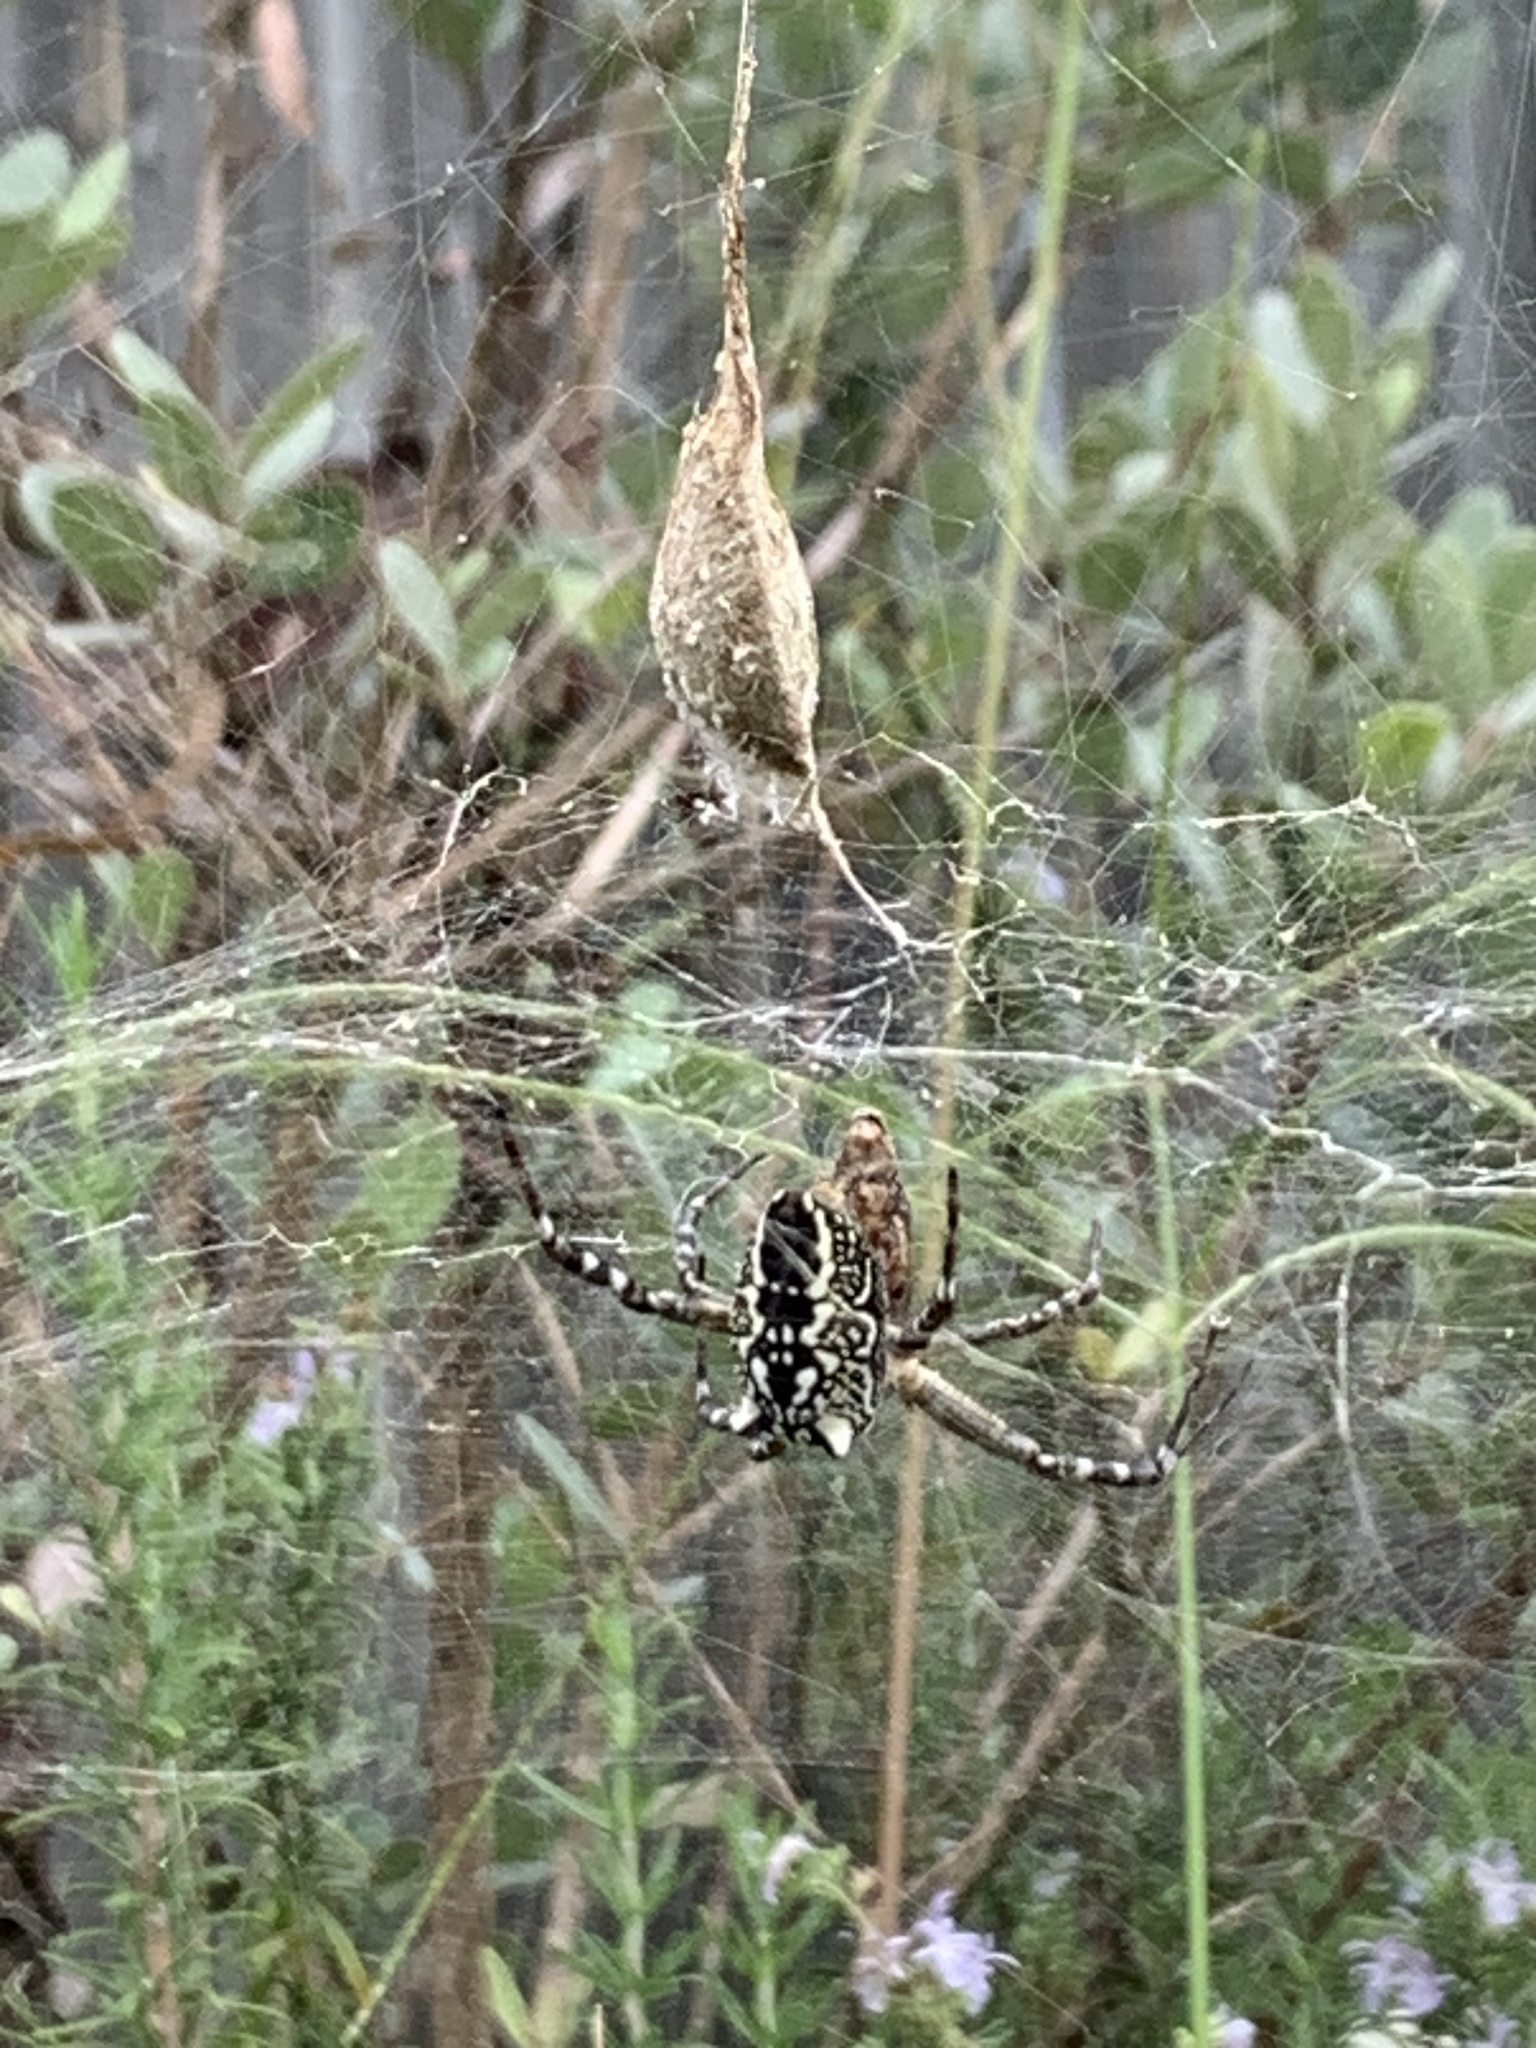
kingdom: Chromista
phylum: Ochrophyta
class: Dictyochophyceae
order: Pedinellales
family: Cyrtophoraceae
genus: Cyrtophora
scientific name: Cyrtophora moluccensis
